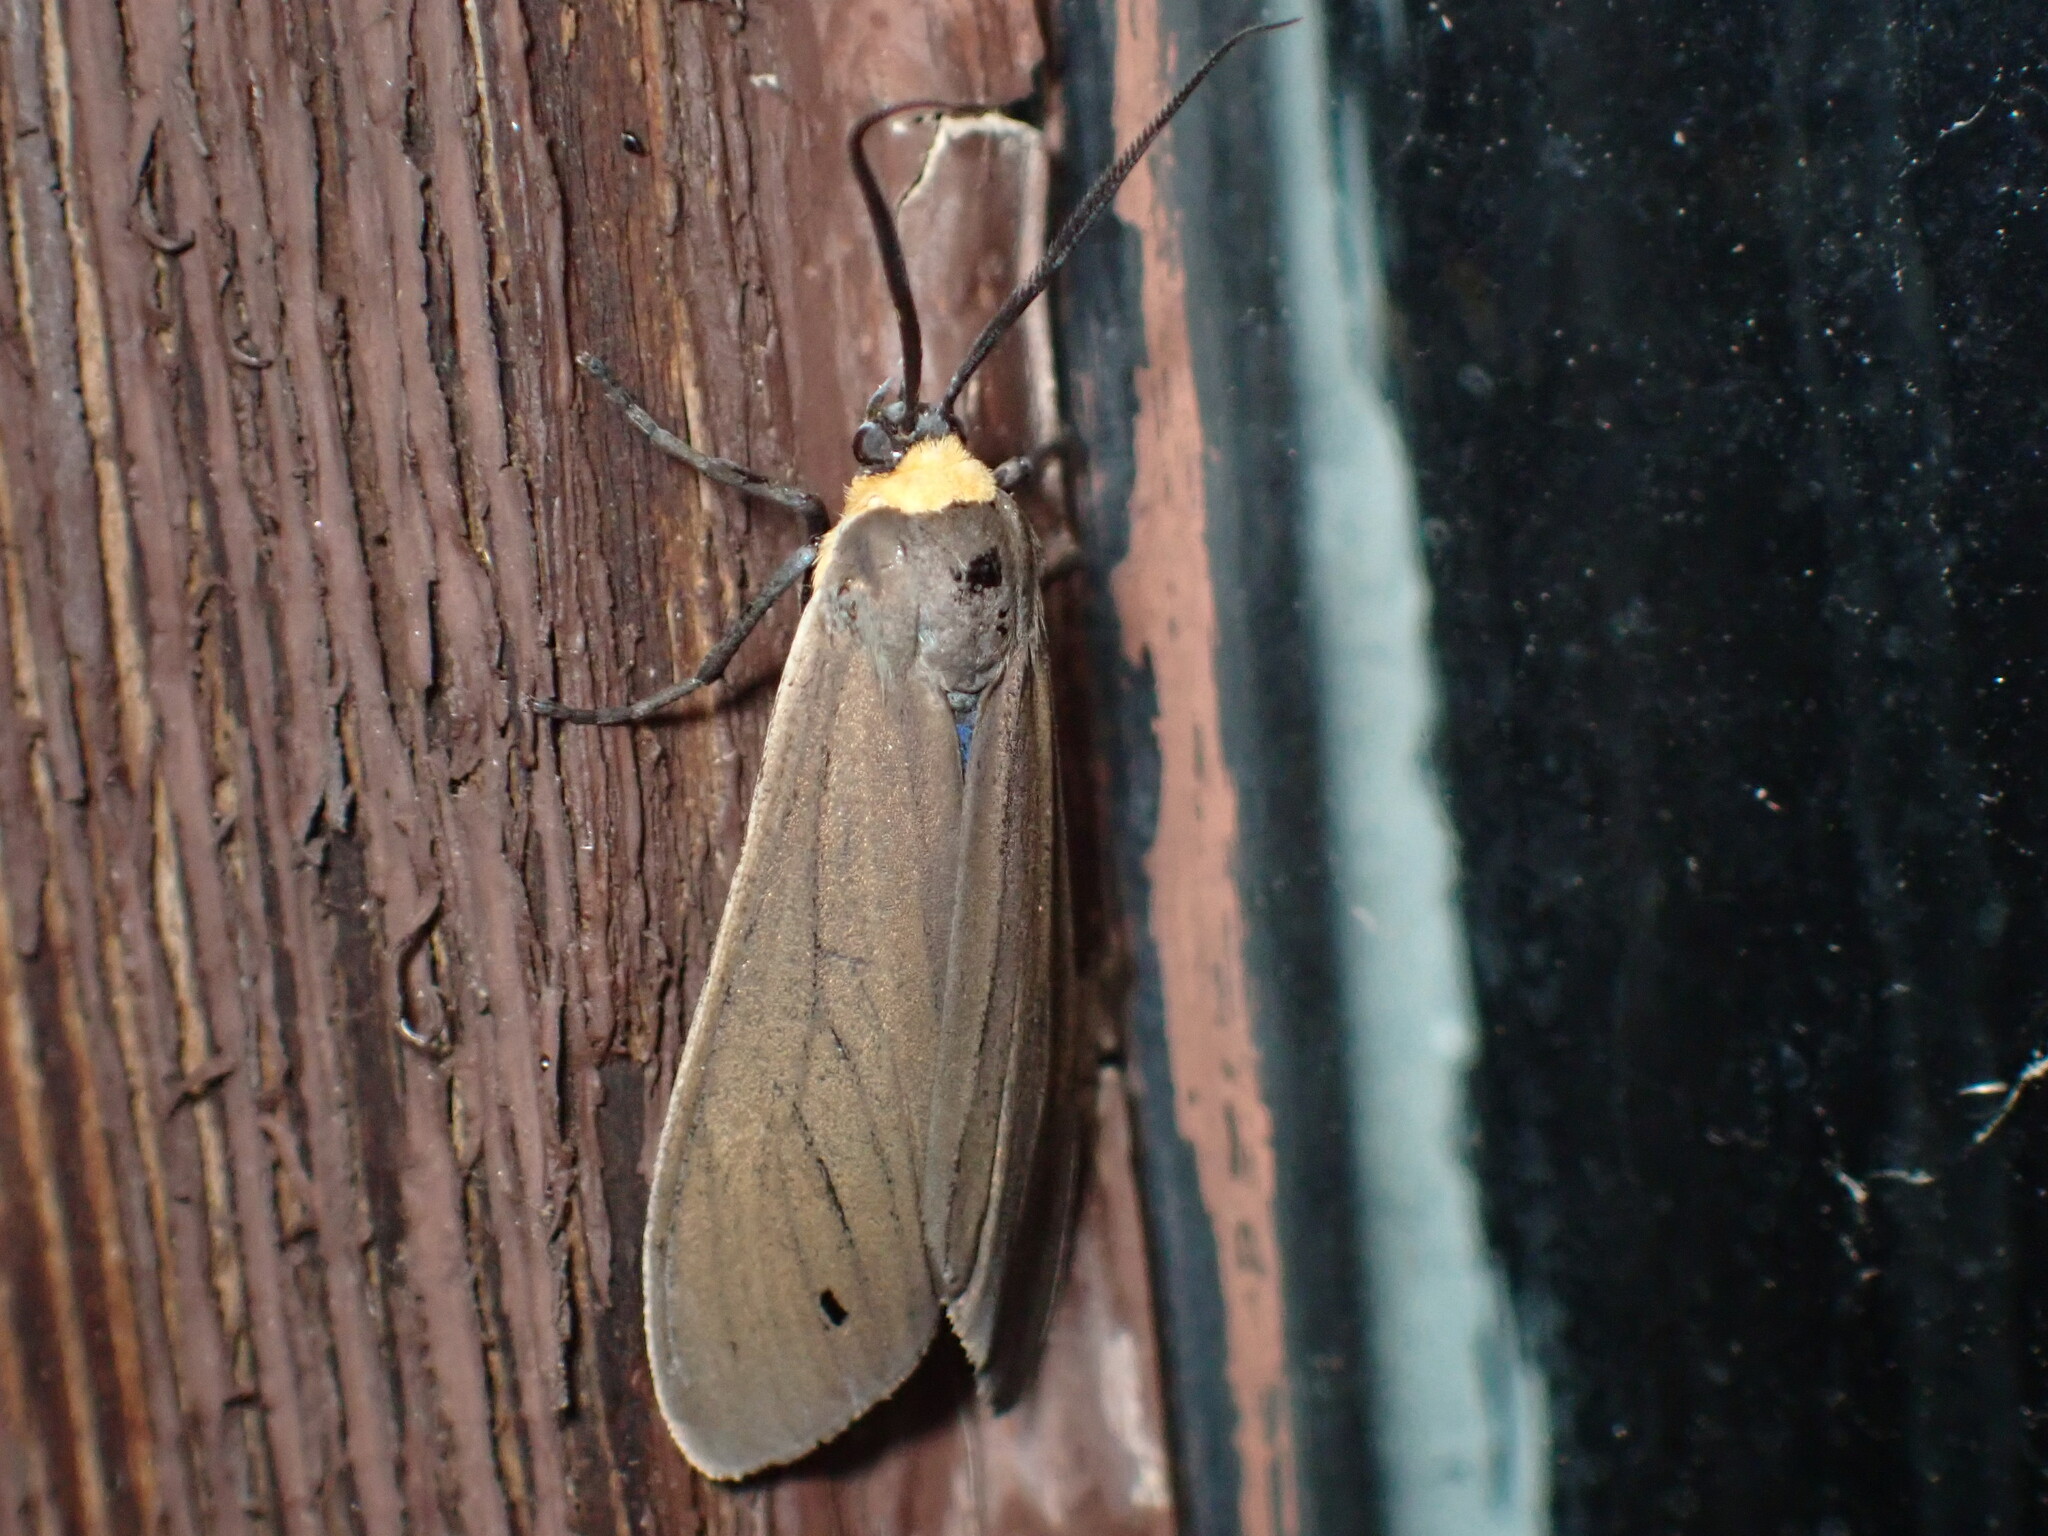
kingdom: Animalia
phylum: Arthropoda
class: Insecta
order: Lepidoptera
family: Erebidae
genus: Cisseps
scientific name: Cisseps fulvicollis
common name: Yellow-collared scape moth
